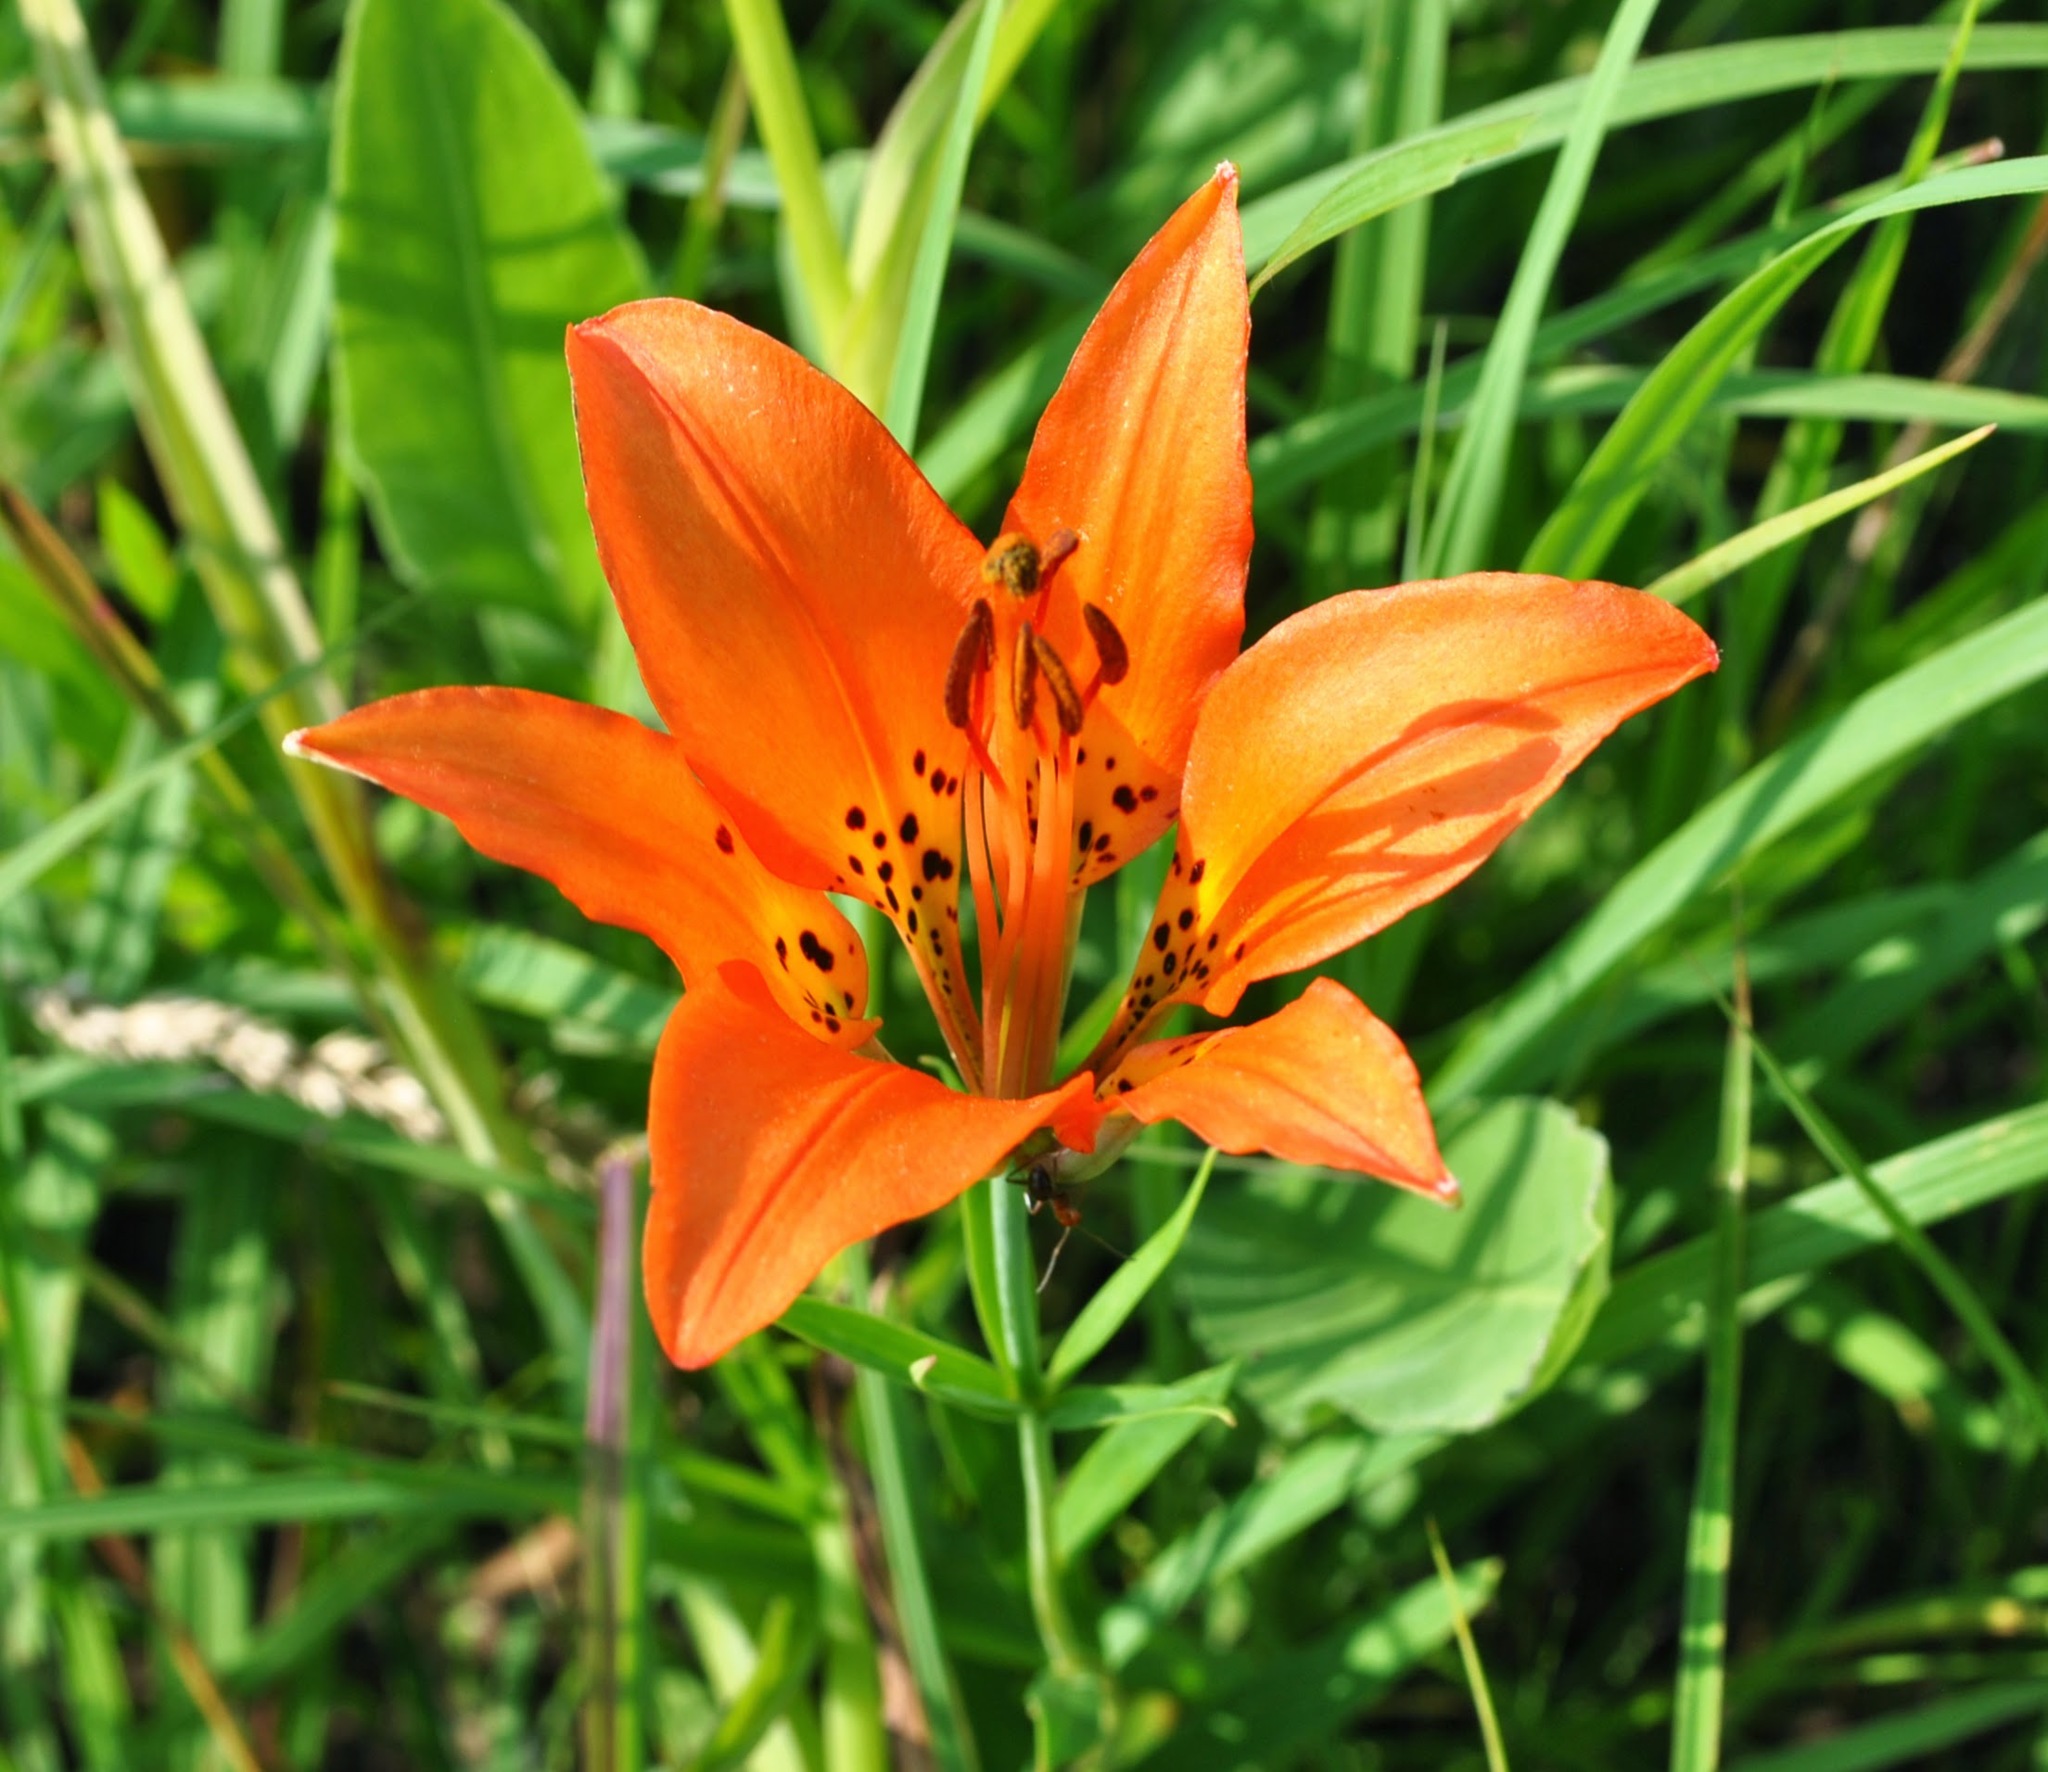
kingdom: Plantae
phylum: Tracheophyta
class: Liliopsida
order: Liliales
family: Liliaceae
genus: Lilium
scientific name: Lilium philadelphicum
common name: Red lily
